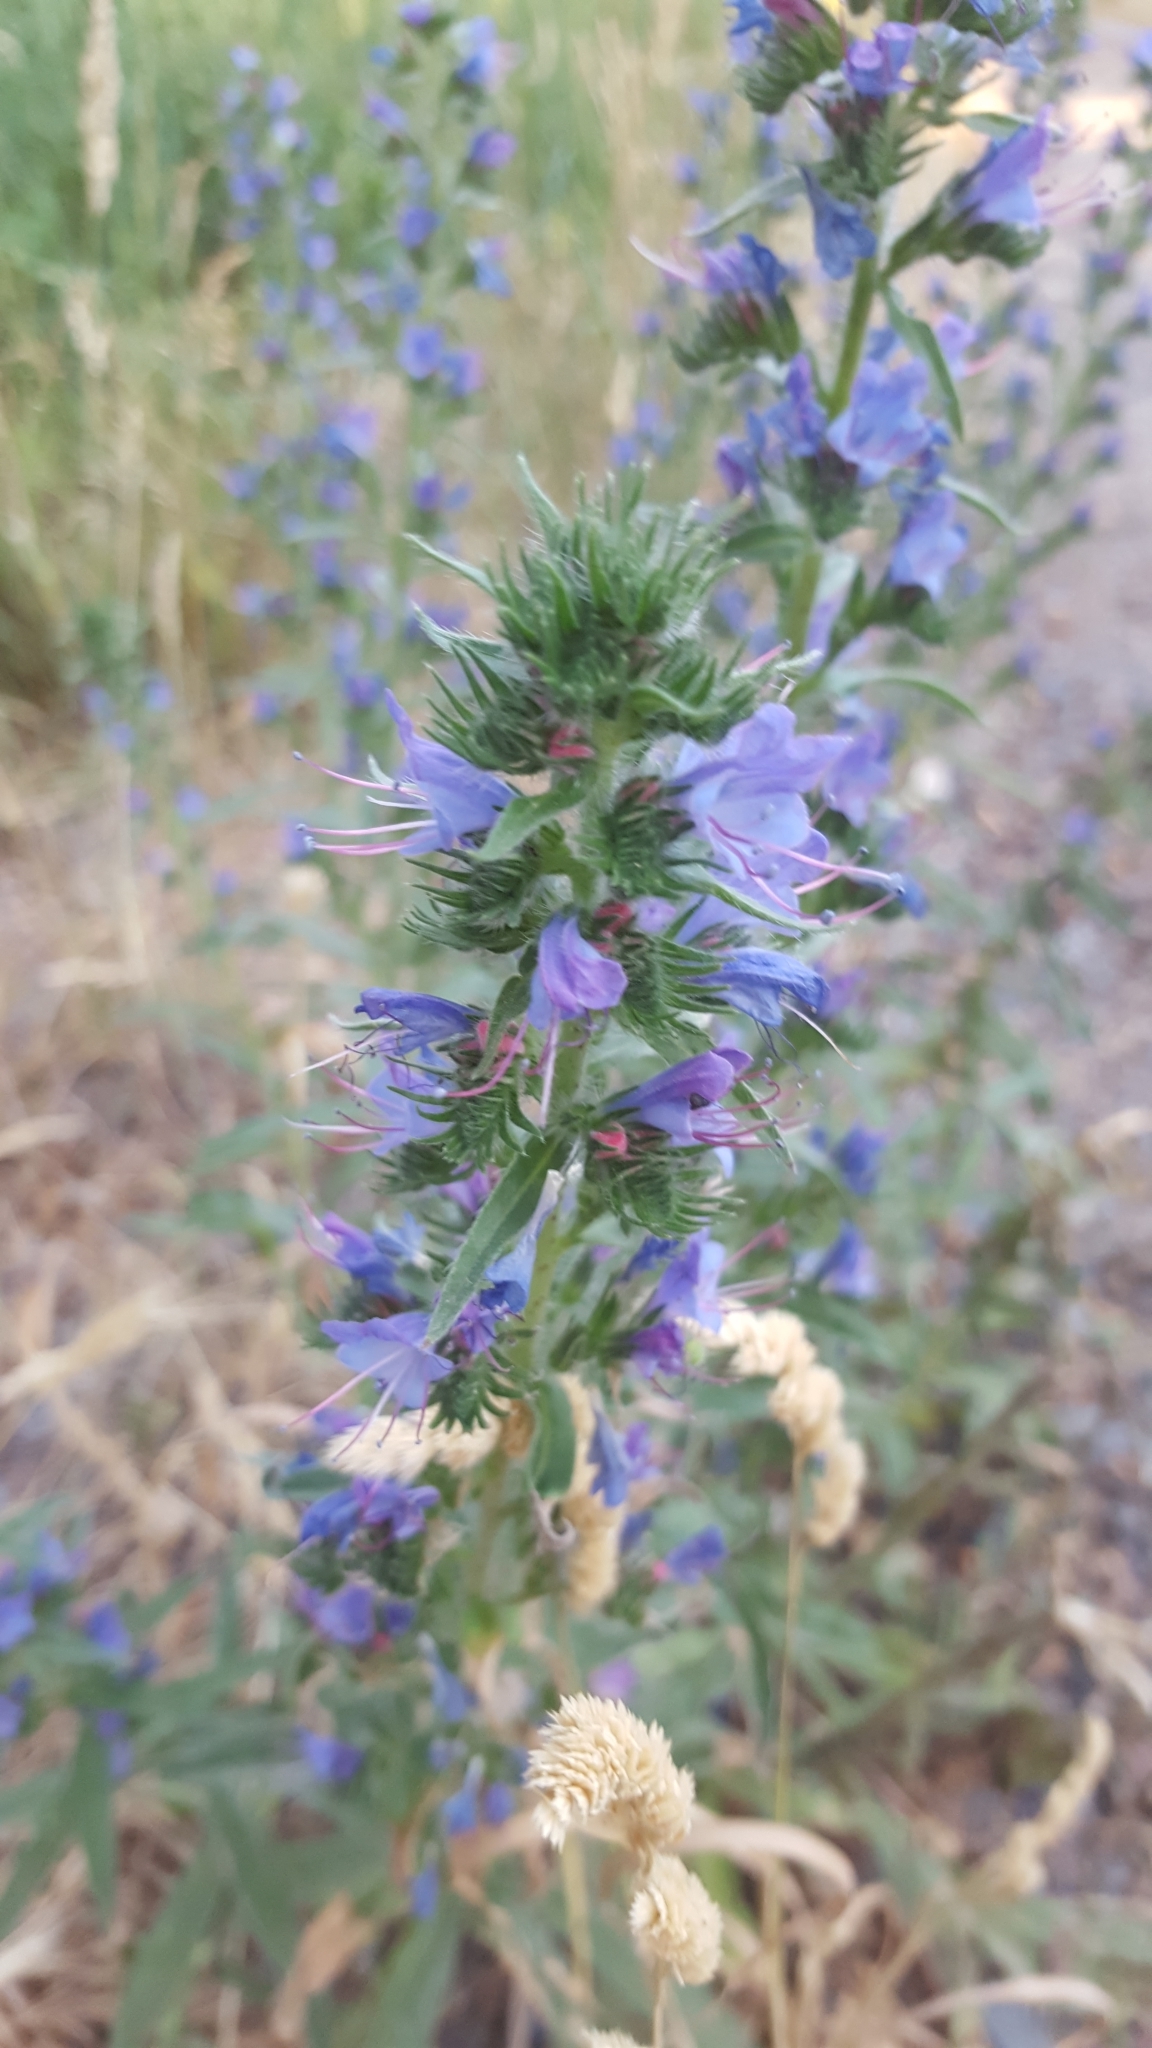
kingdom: Plantae
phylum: Tracheophyta
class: Magnoliopsida
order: Boraginales
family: Boraginaceae
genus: Echium
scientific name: Echium vulgare
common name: Common viper's bugloss
